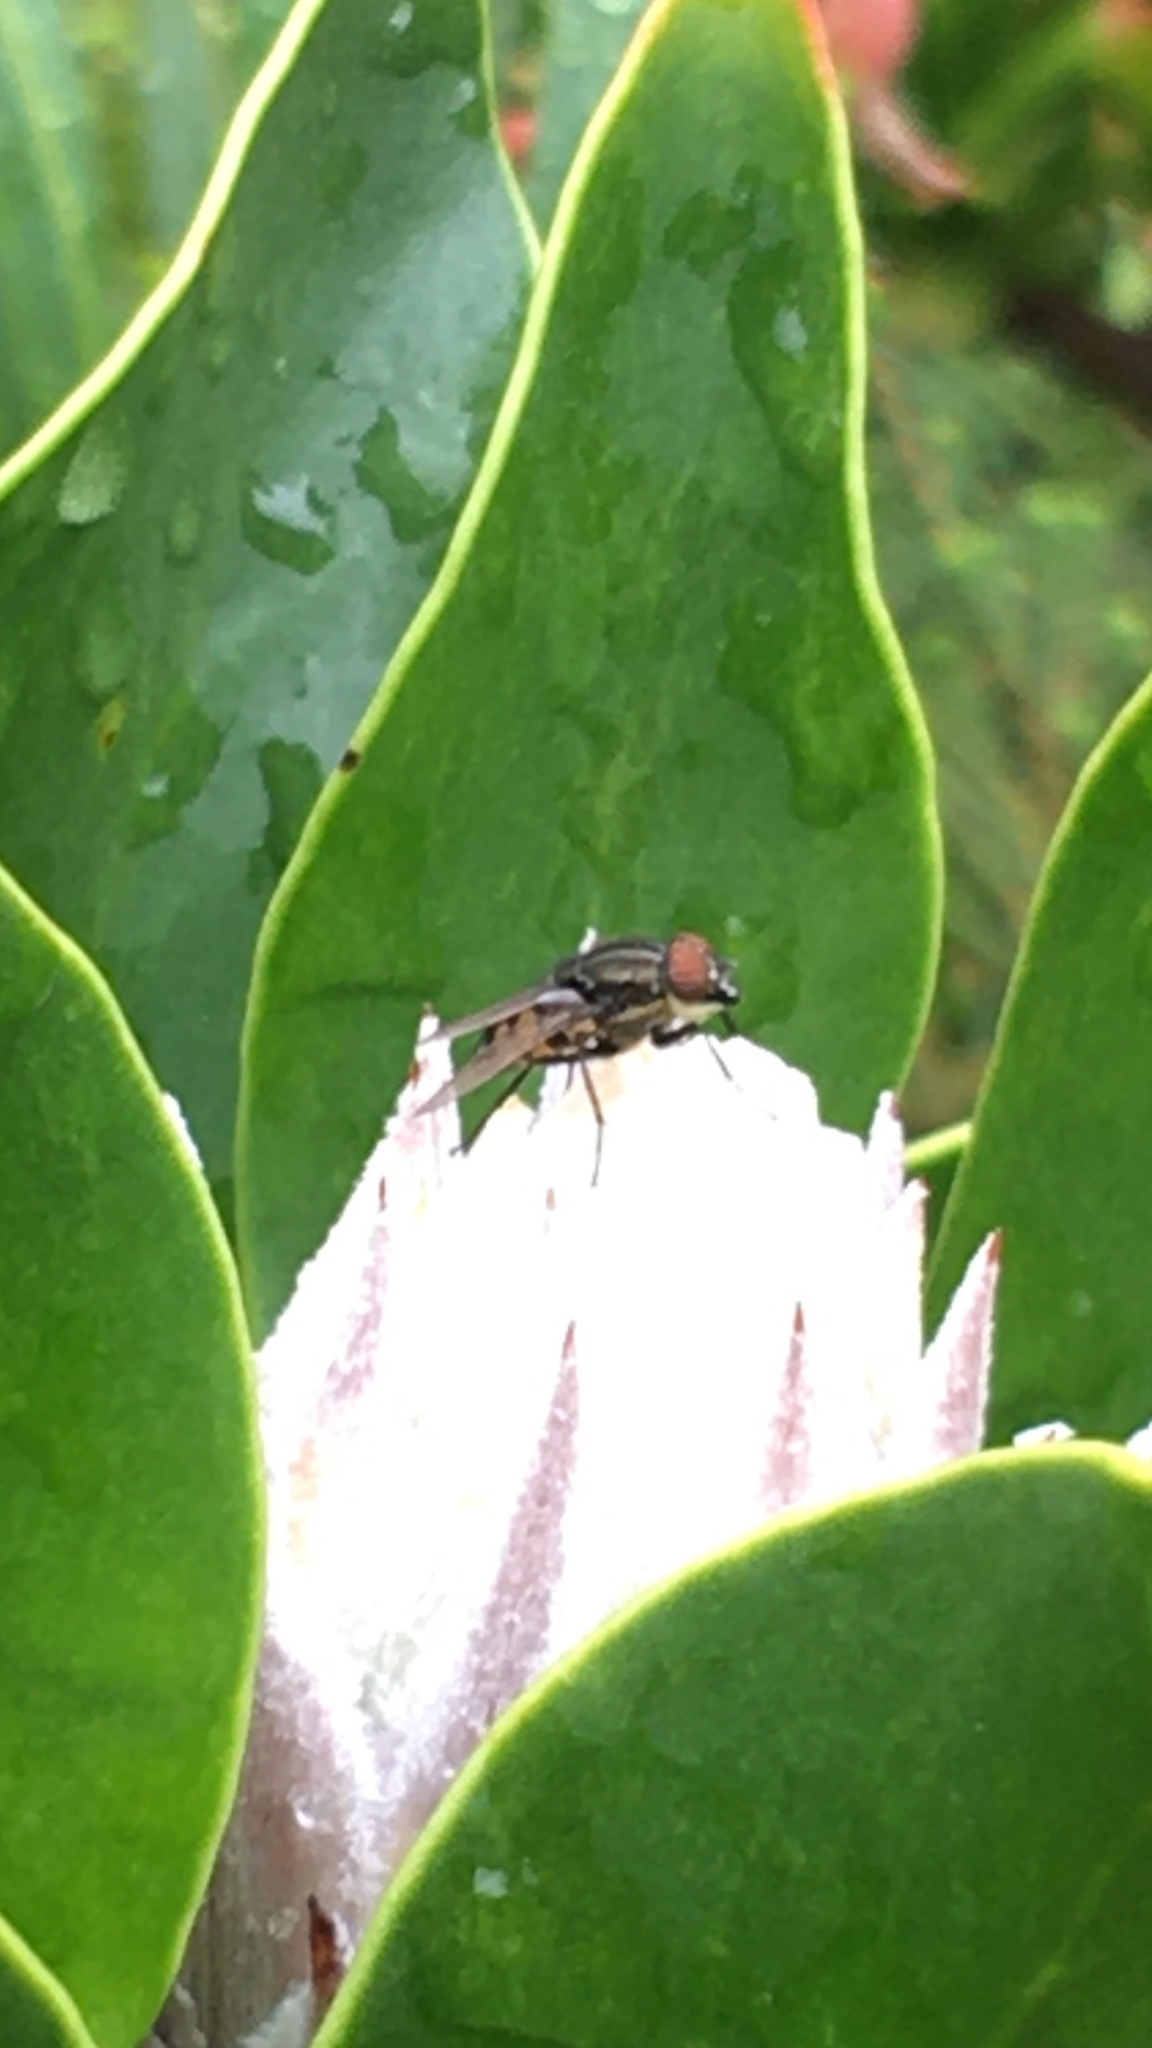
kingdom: Animalia
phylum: Arthropoda
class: Insecta
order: Diptera
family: Calliphoridae
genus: Stomorhina
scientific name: Stomorhina lunata
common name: Locust blowfly
